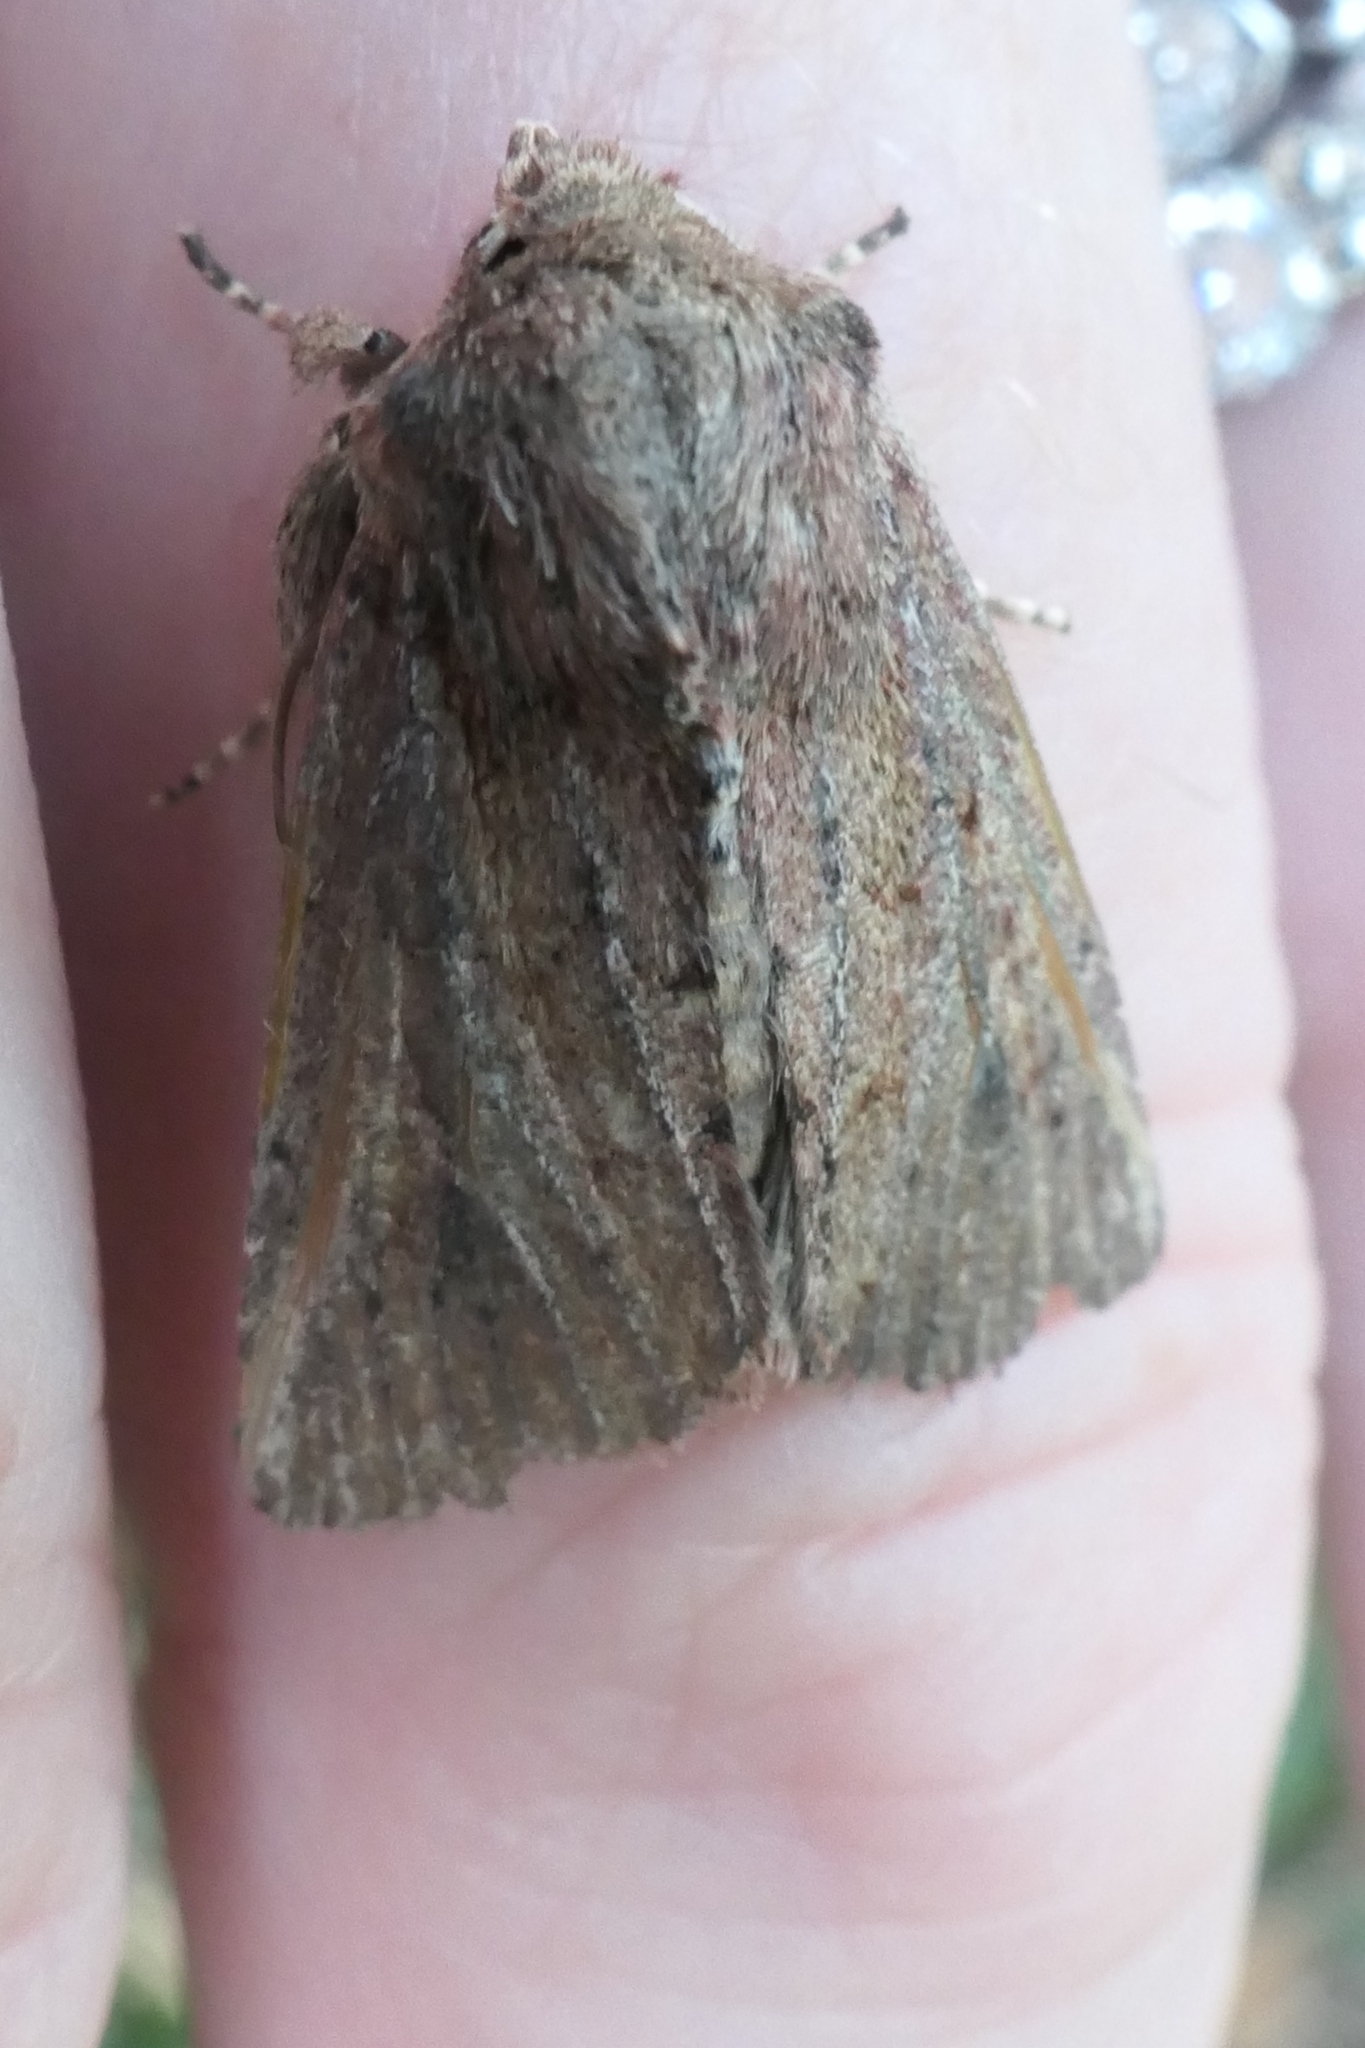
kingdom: Animalia
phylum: Arthropoda
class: Insecta
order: Lepidoptera
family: Noctuidae
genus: Ichneutica
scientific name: Ichneutica
